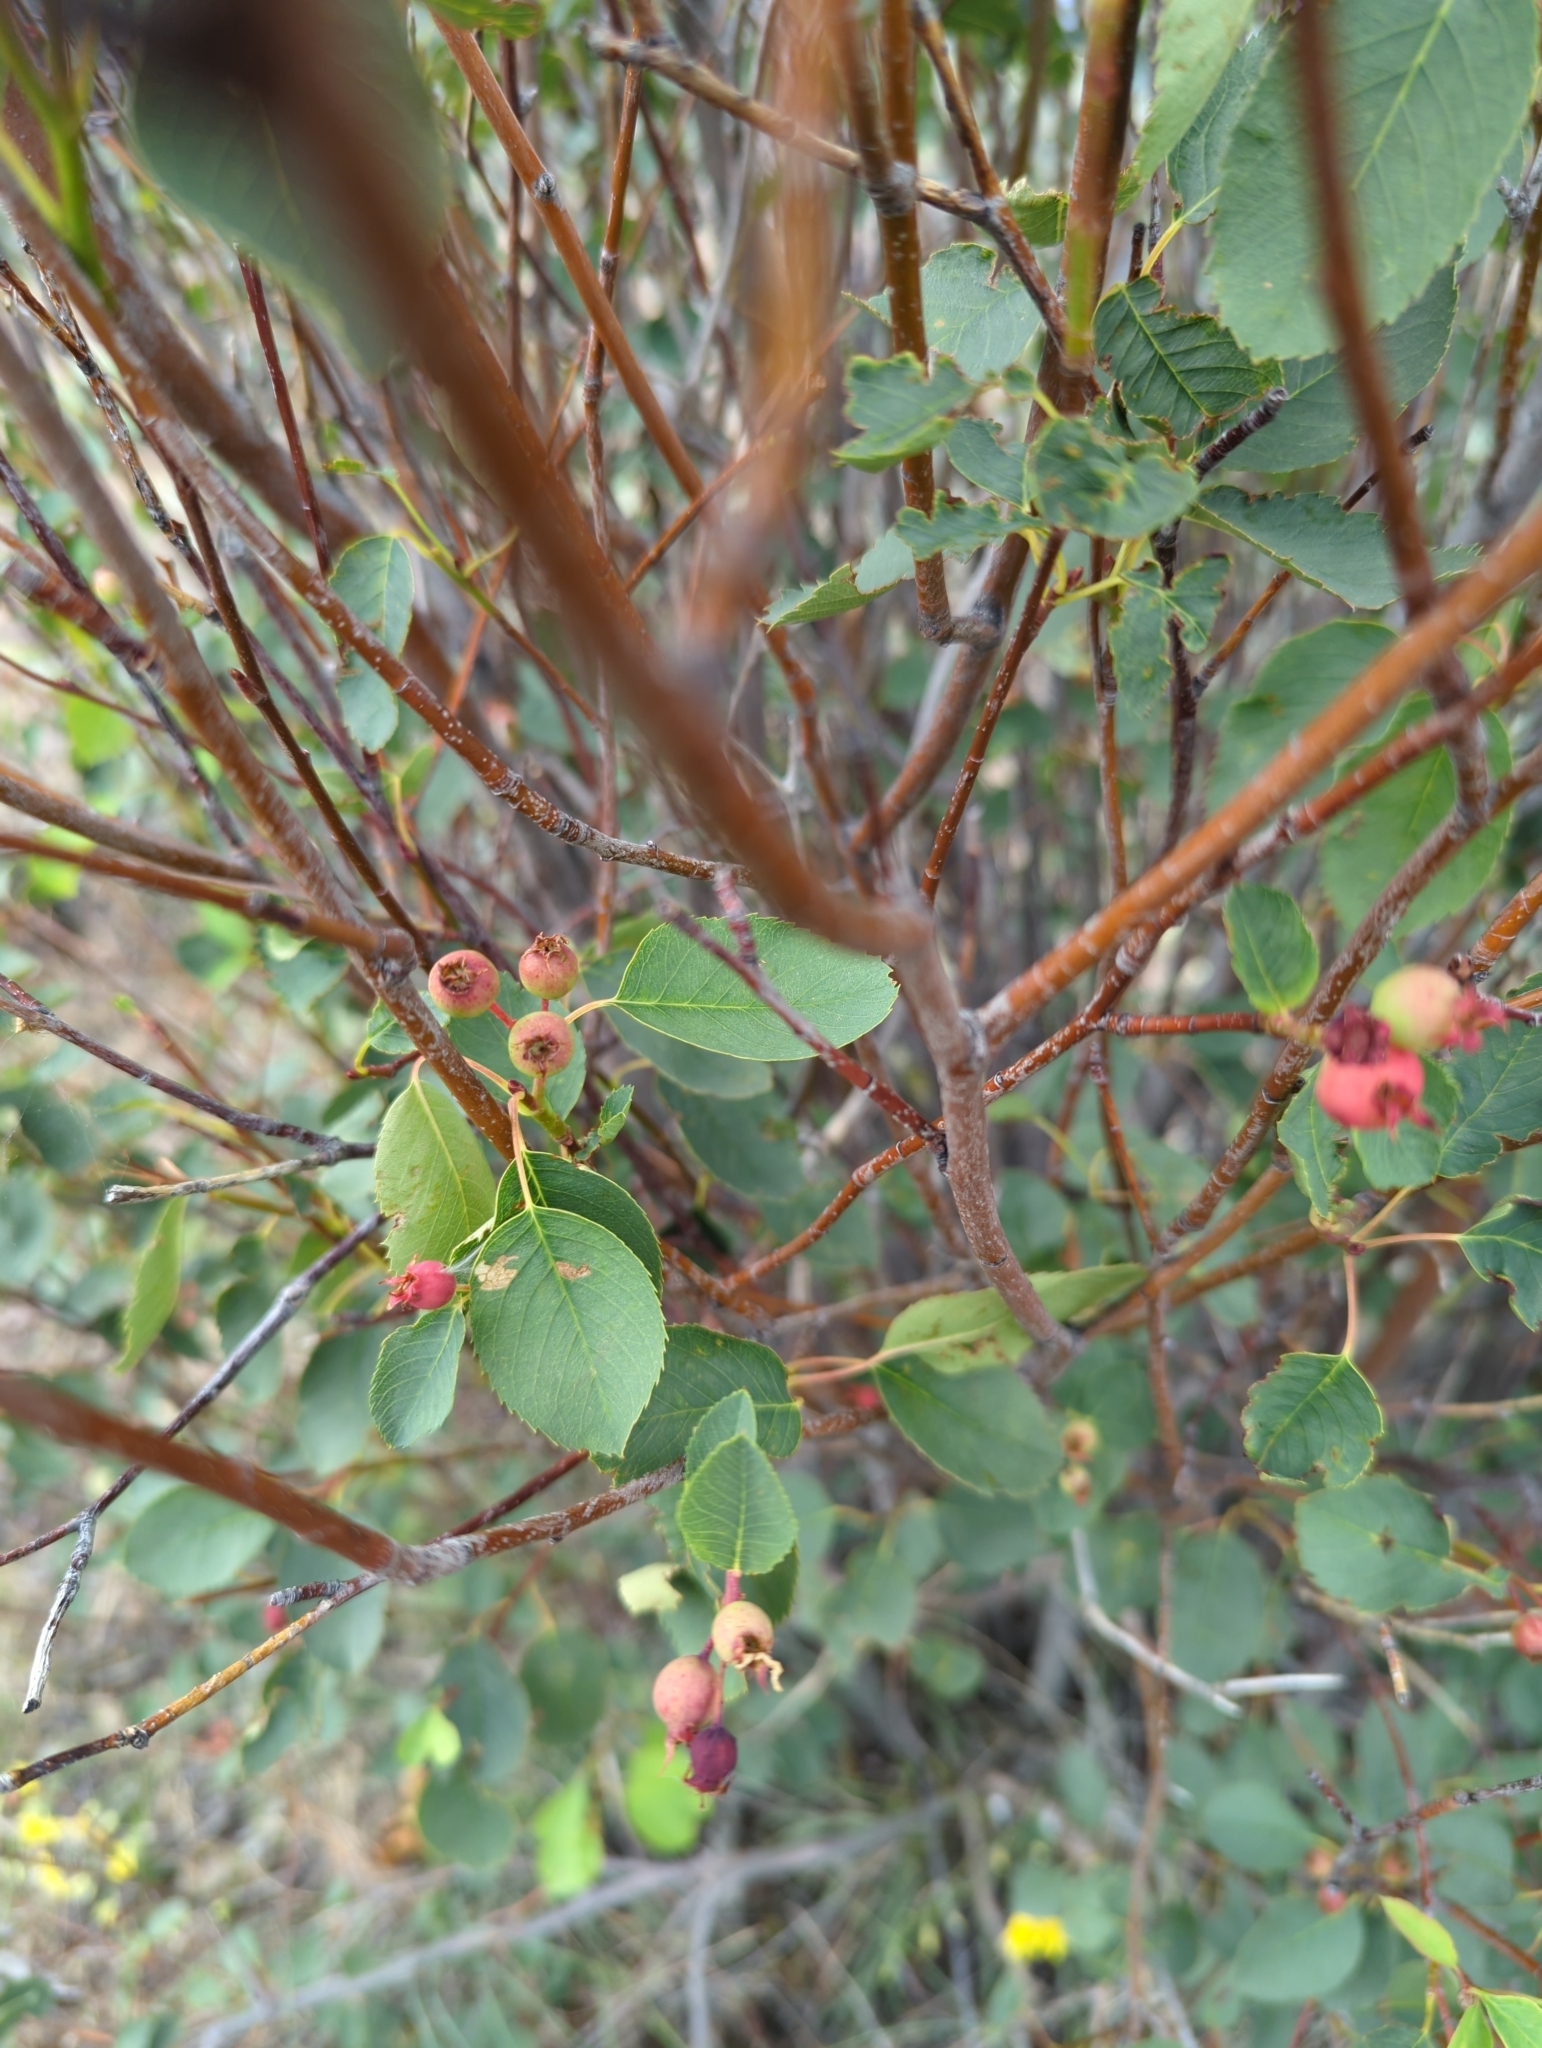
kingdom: Plantae
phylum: Tracheophyta
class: Magnoliopsida
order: Rosales
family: Rosaceae
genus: Amelanchier
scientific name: Amelanchier alnifolia
